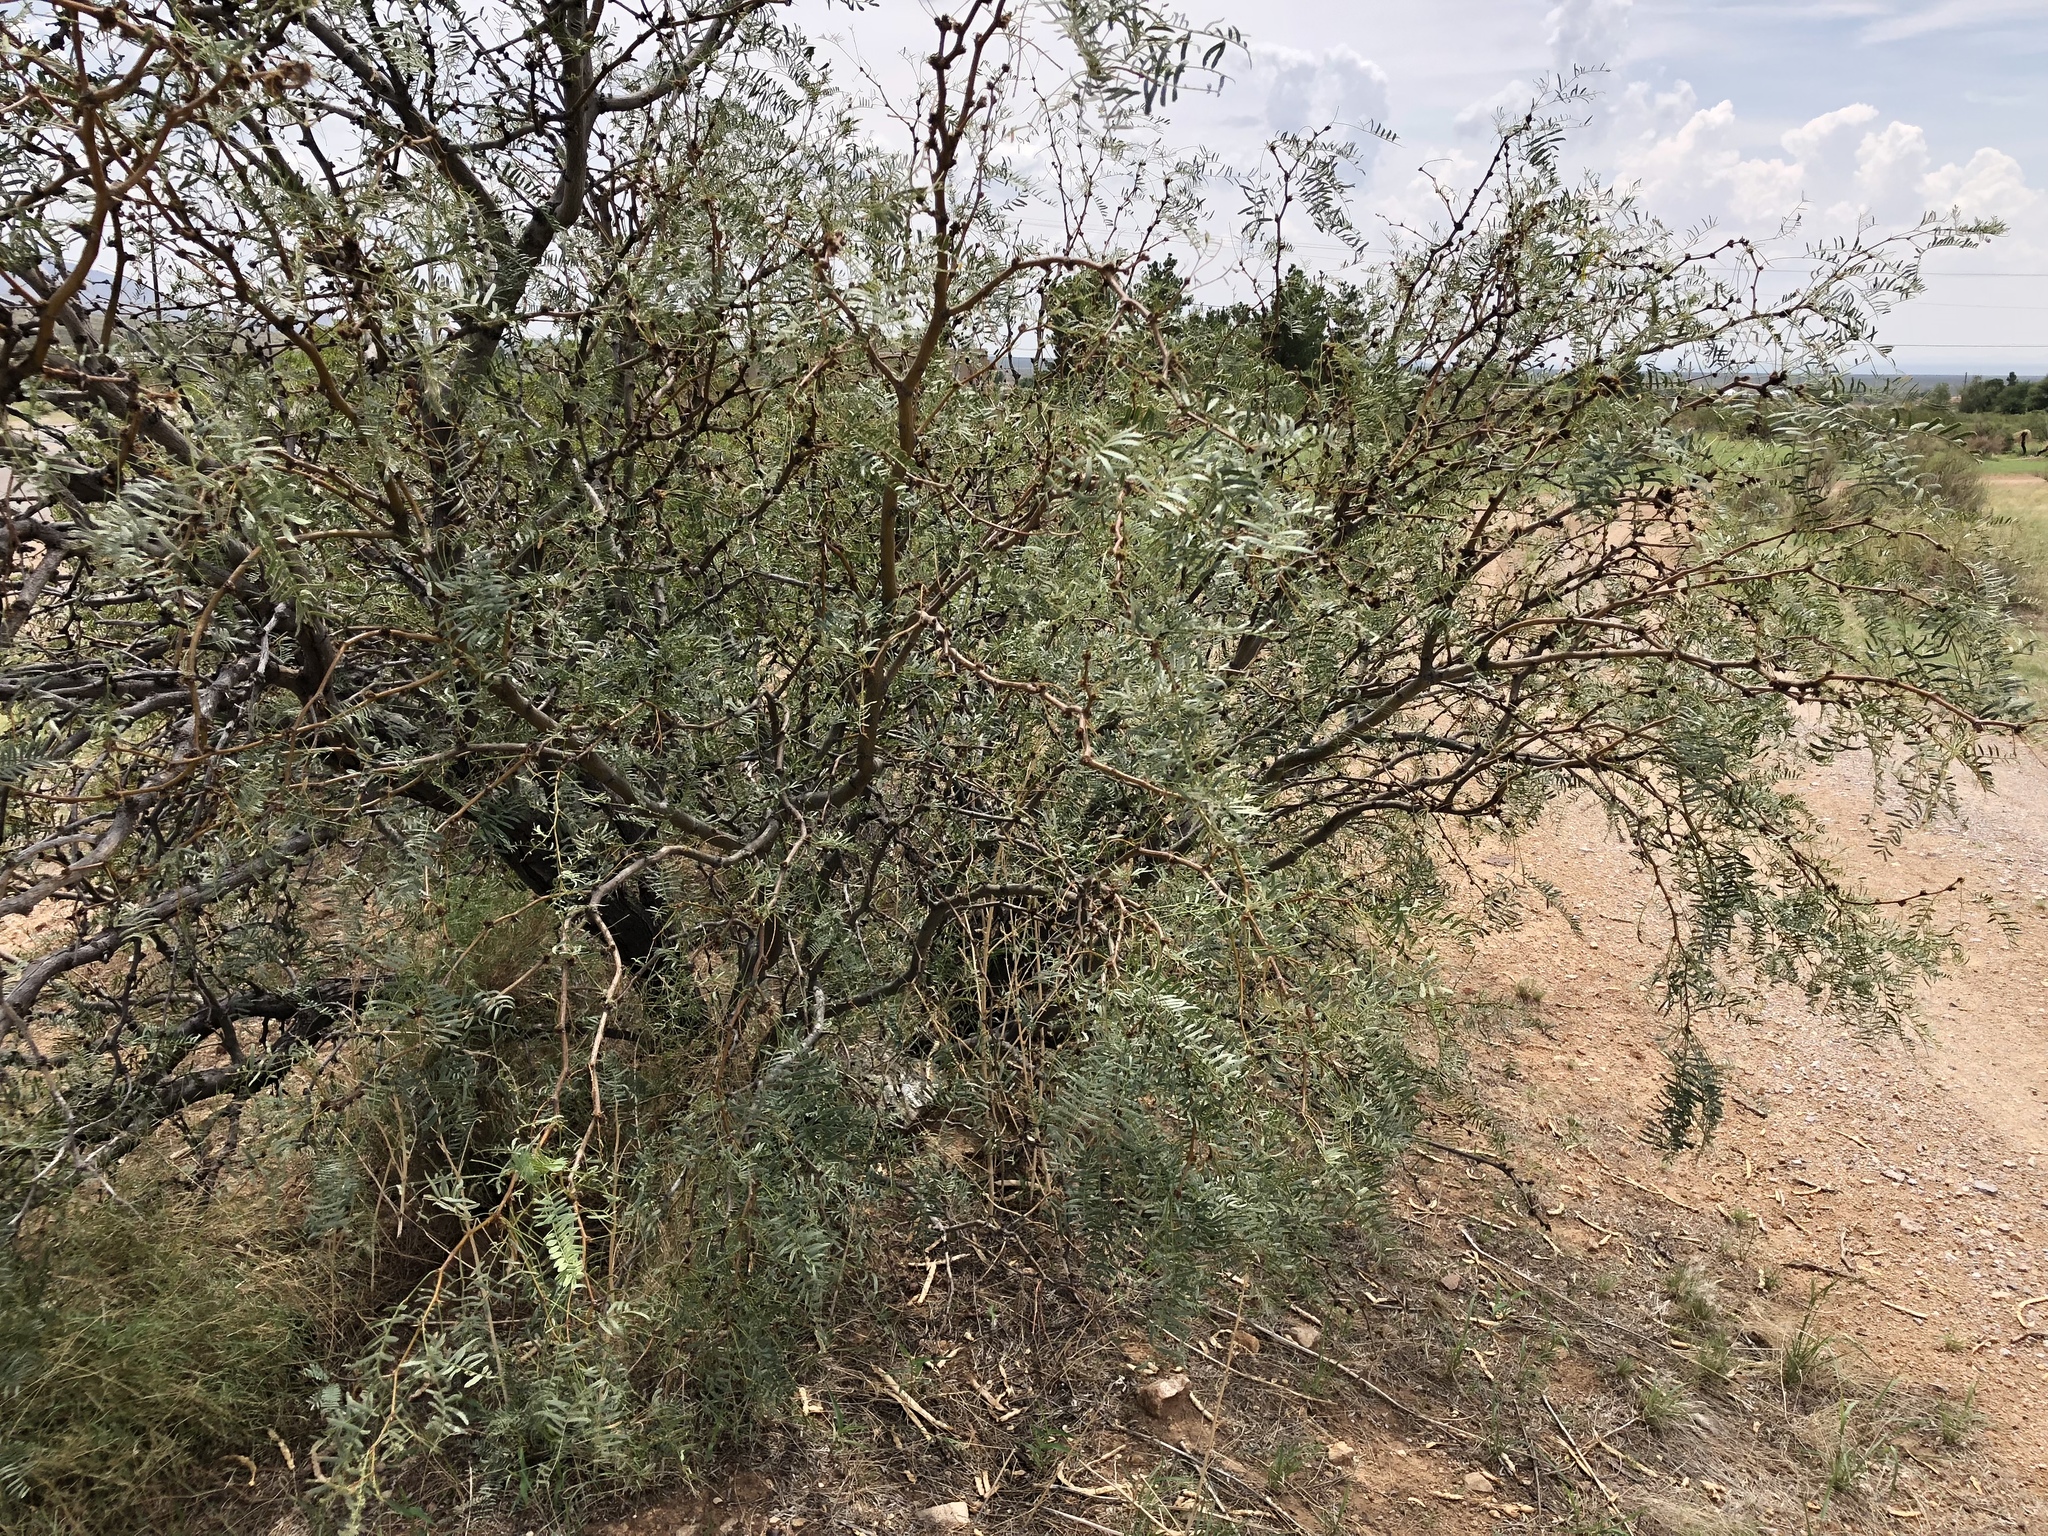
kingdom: Plantae
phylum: Tracheophyta
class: Magnoliopsida
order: Fabales
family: Fabaceae
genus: Prosopis
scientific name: Prosopis glandulosa
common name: Honey mesquite
